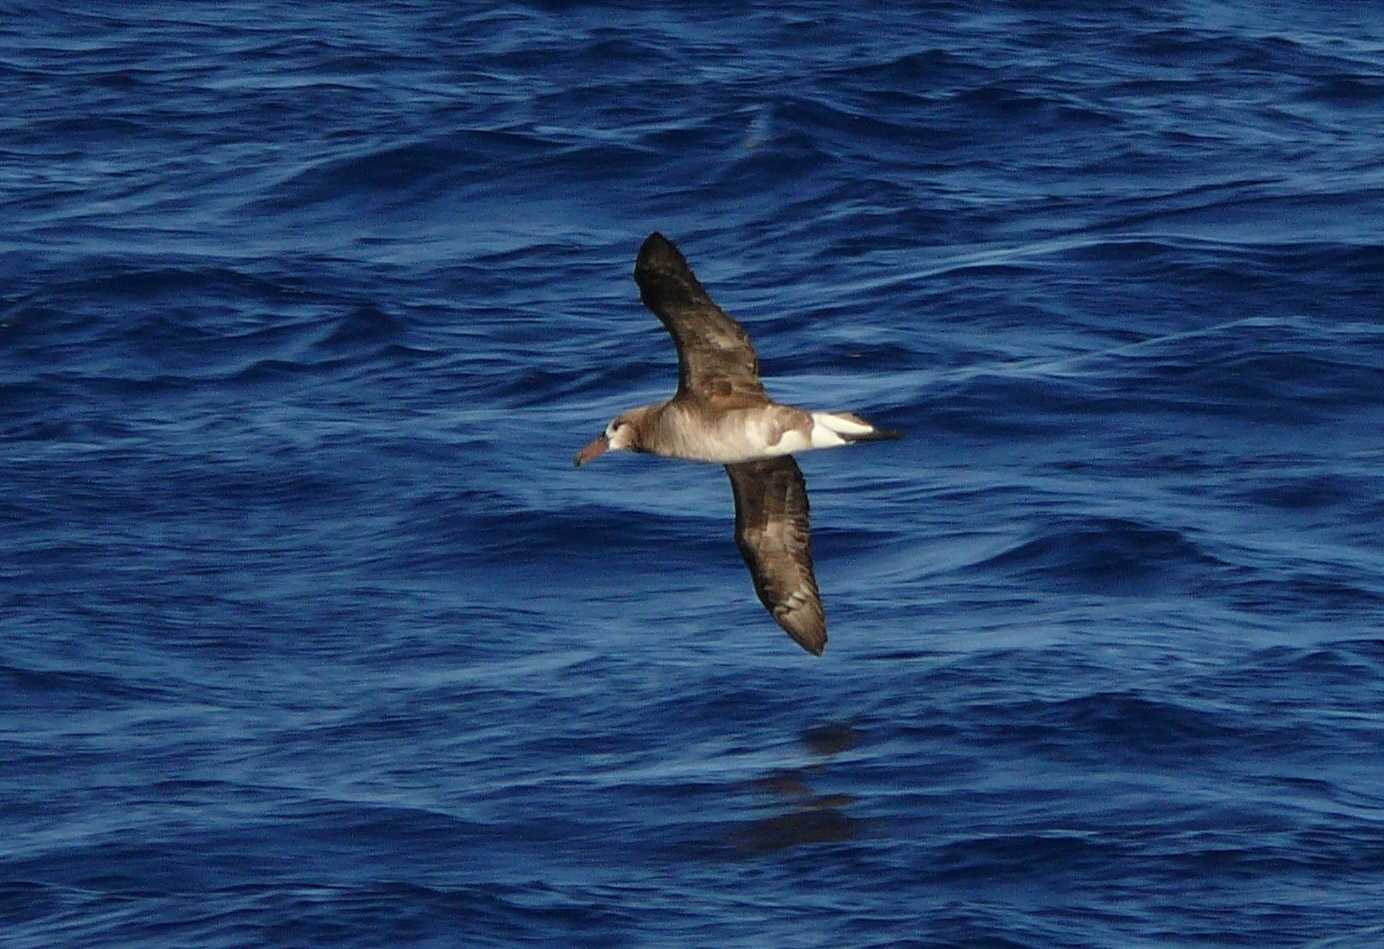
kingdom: Animalia
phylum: Chordata
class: Aves
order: Procellariiformes
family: Diomedeidae
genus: Phoebastria
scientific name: Phoebastria nigripes
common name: Black-footed albatross
